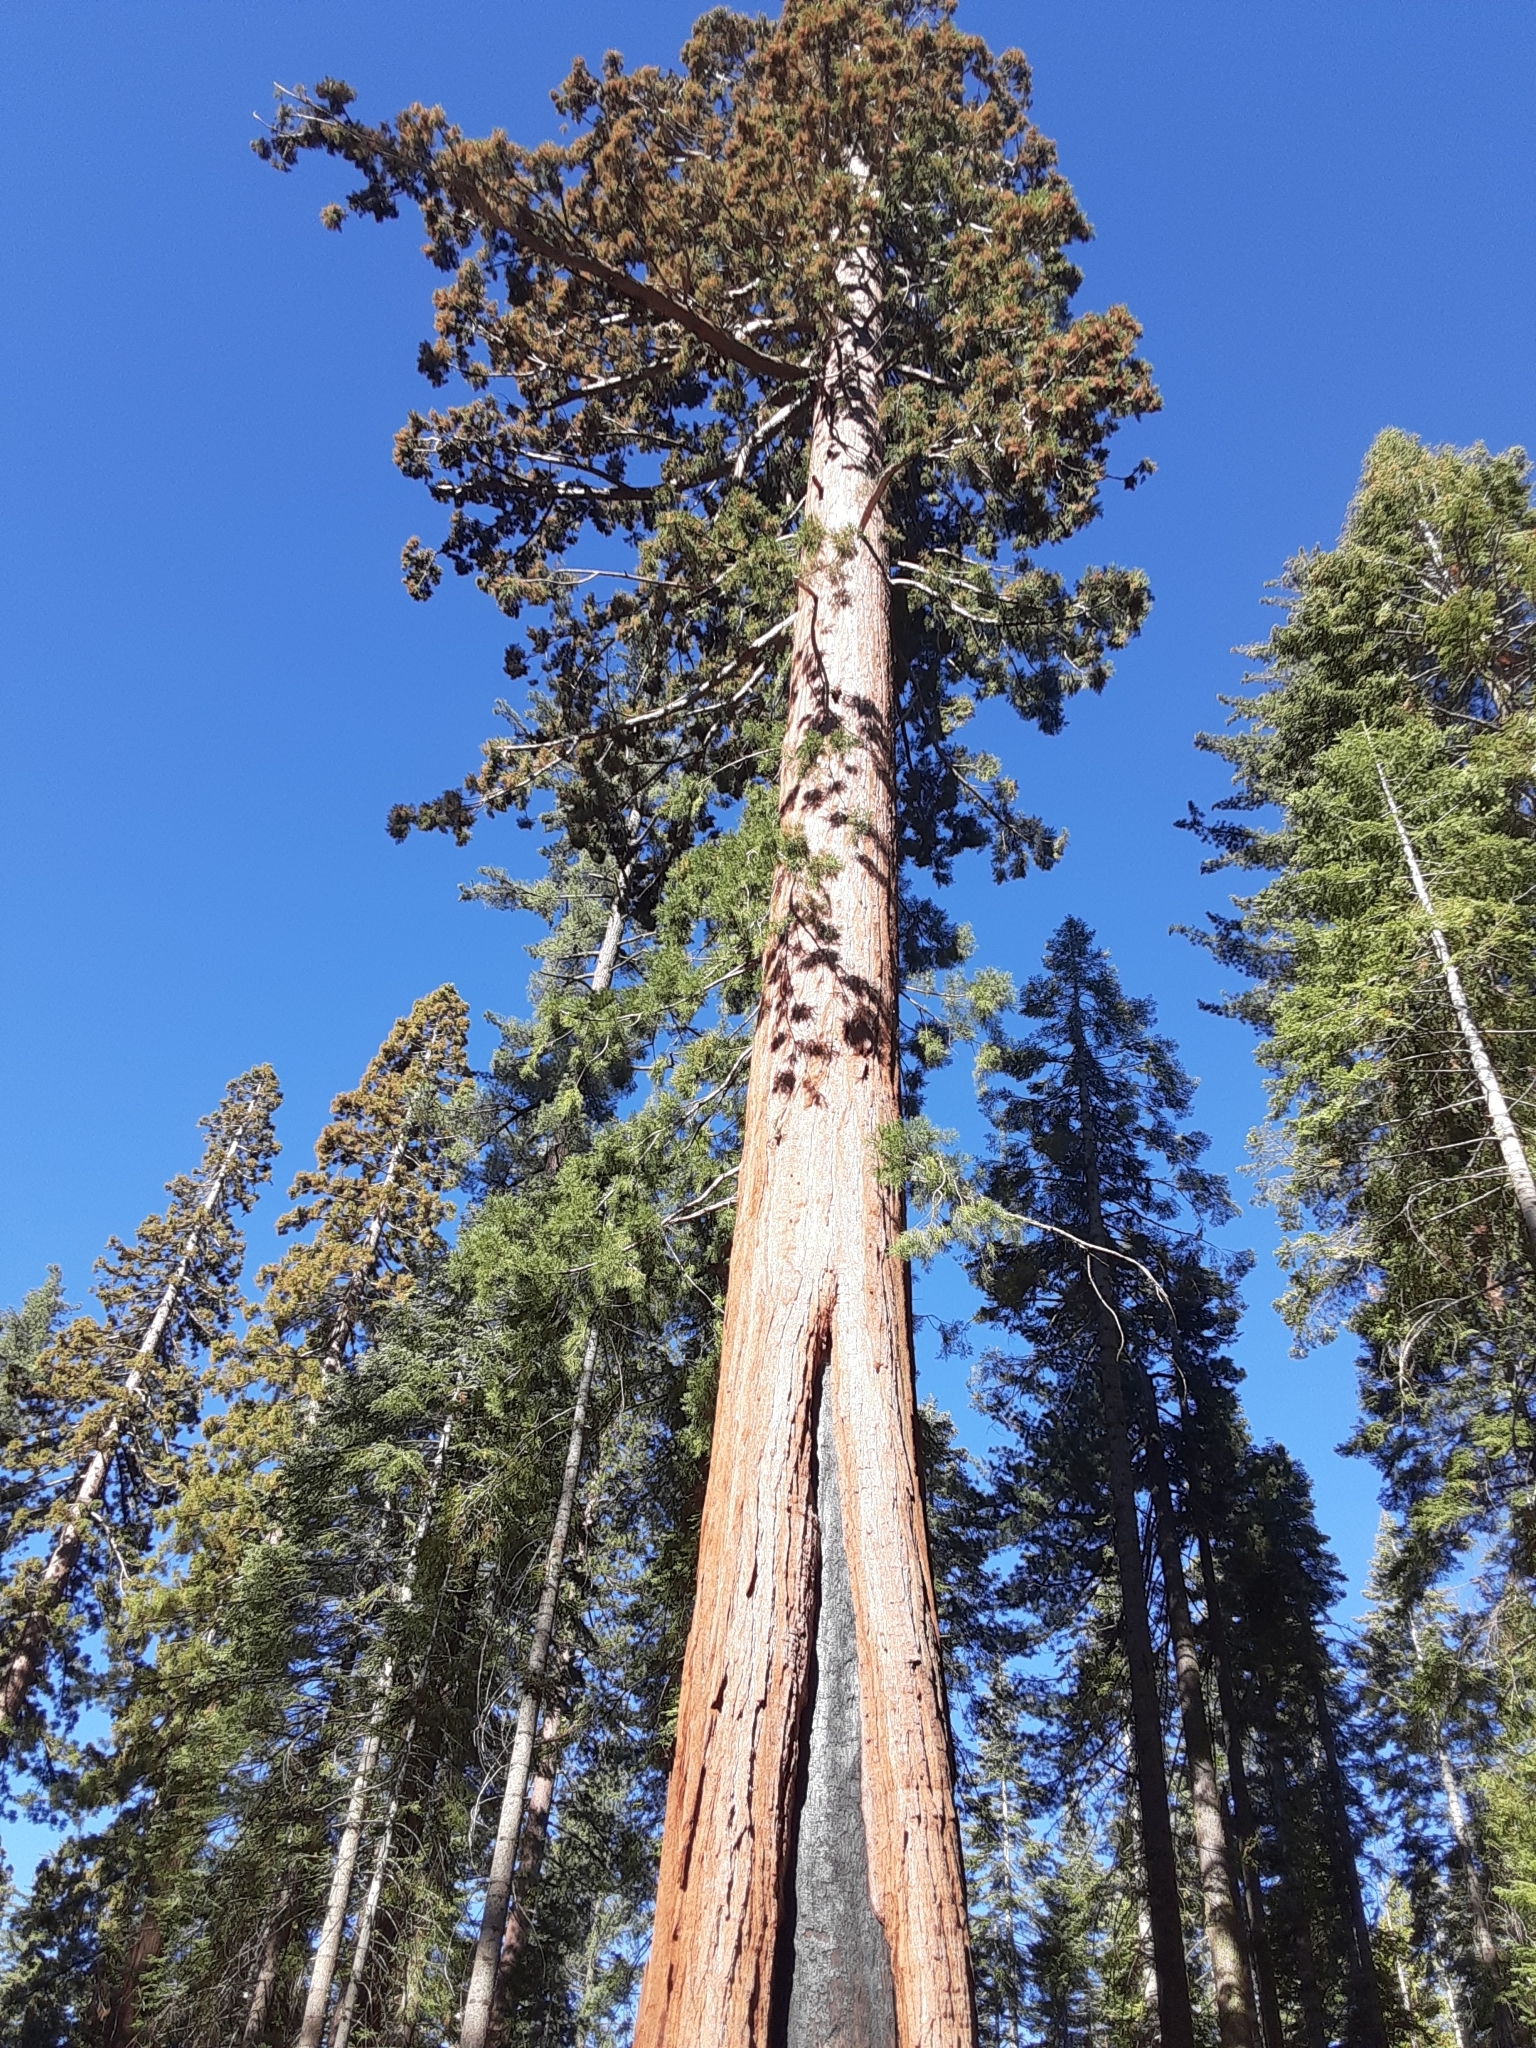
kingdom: Plantae
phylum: Tracheophyta
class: Pinopsida
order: Pinales
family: Cupressaceae
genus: Sequoiadendron
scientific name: Sequoiadendron giganteum
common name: Wellingtonia
